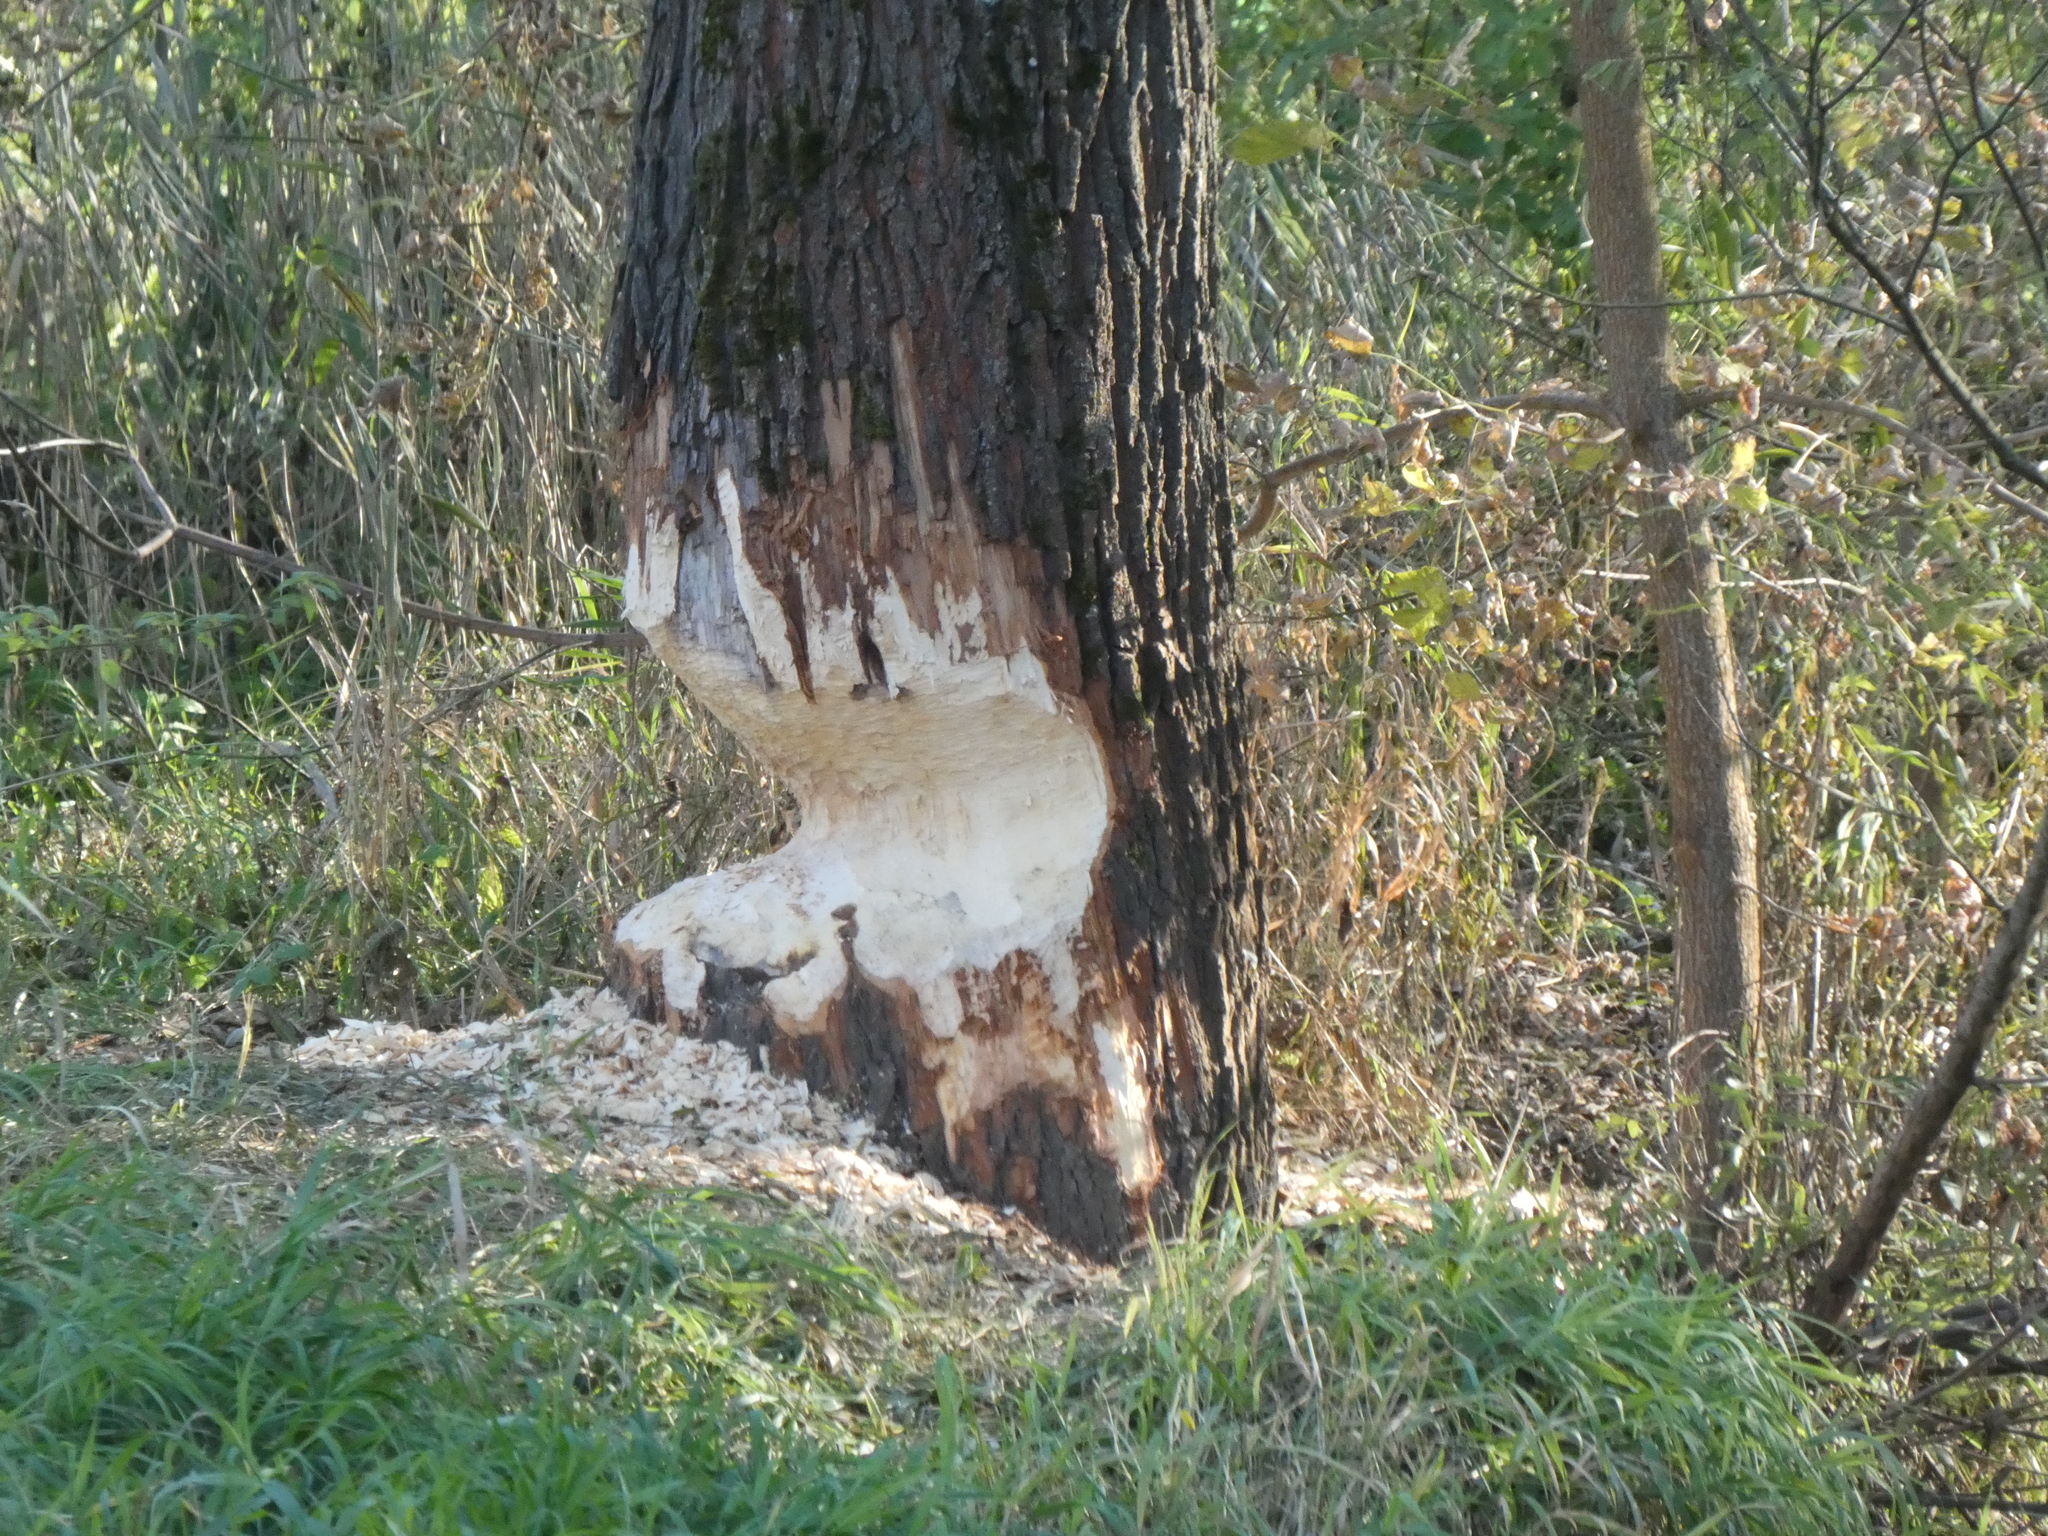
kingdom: Animalia
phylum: Chordata
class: Mammalia
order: Rodentia
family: Castoridae
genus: Castor
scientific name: Castor fiber
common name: Eurasian beaver
